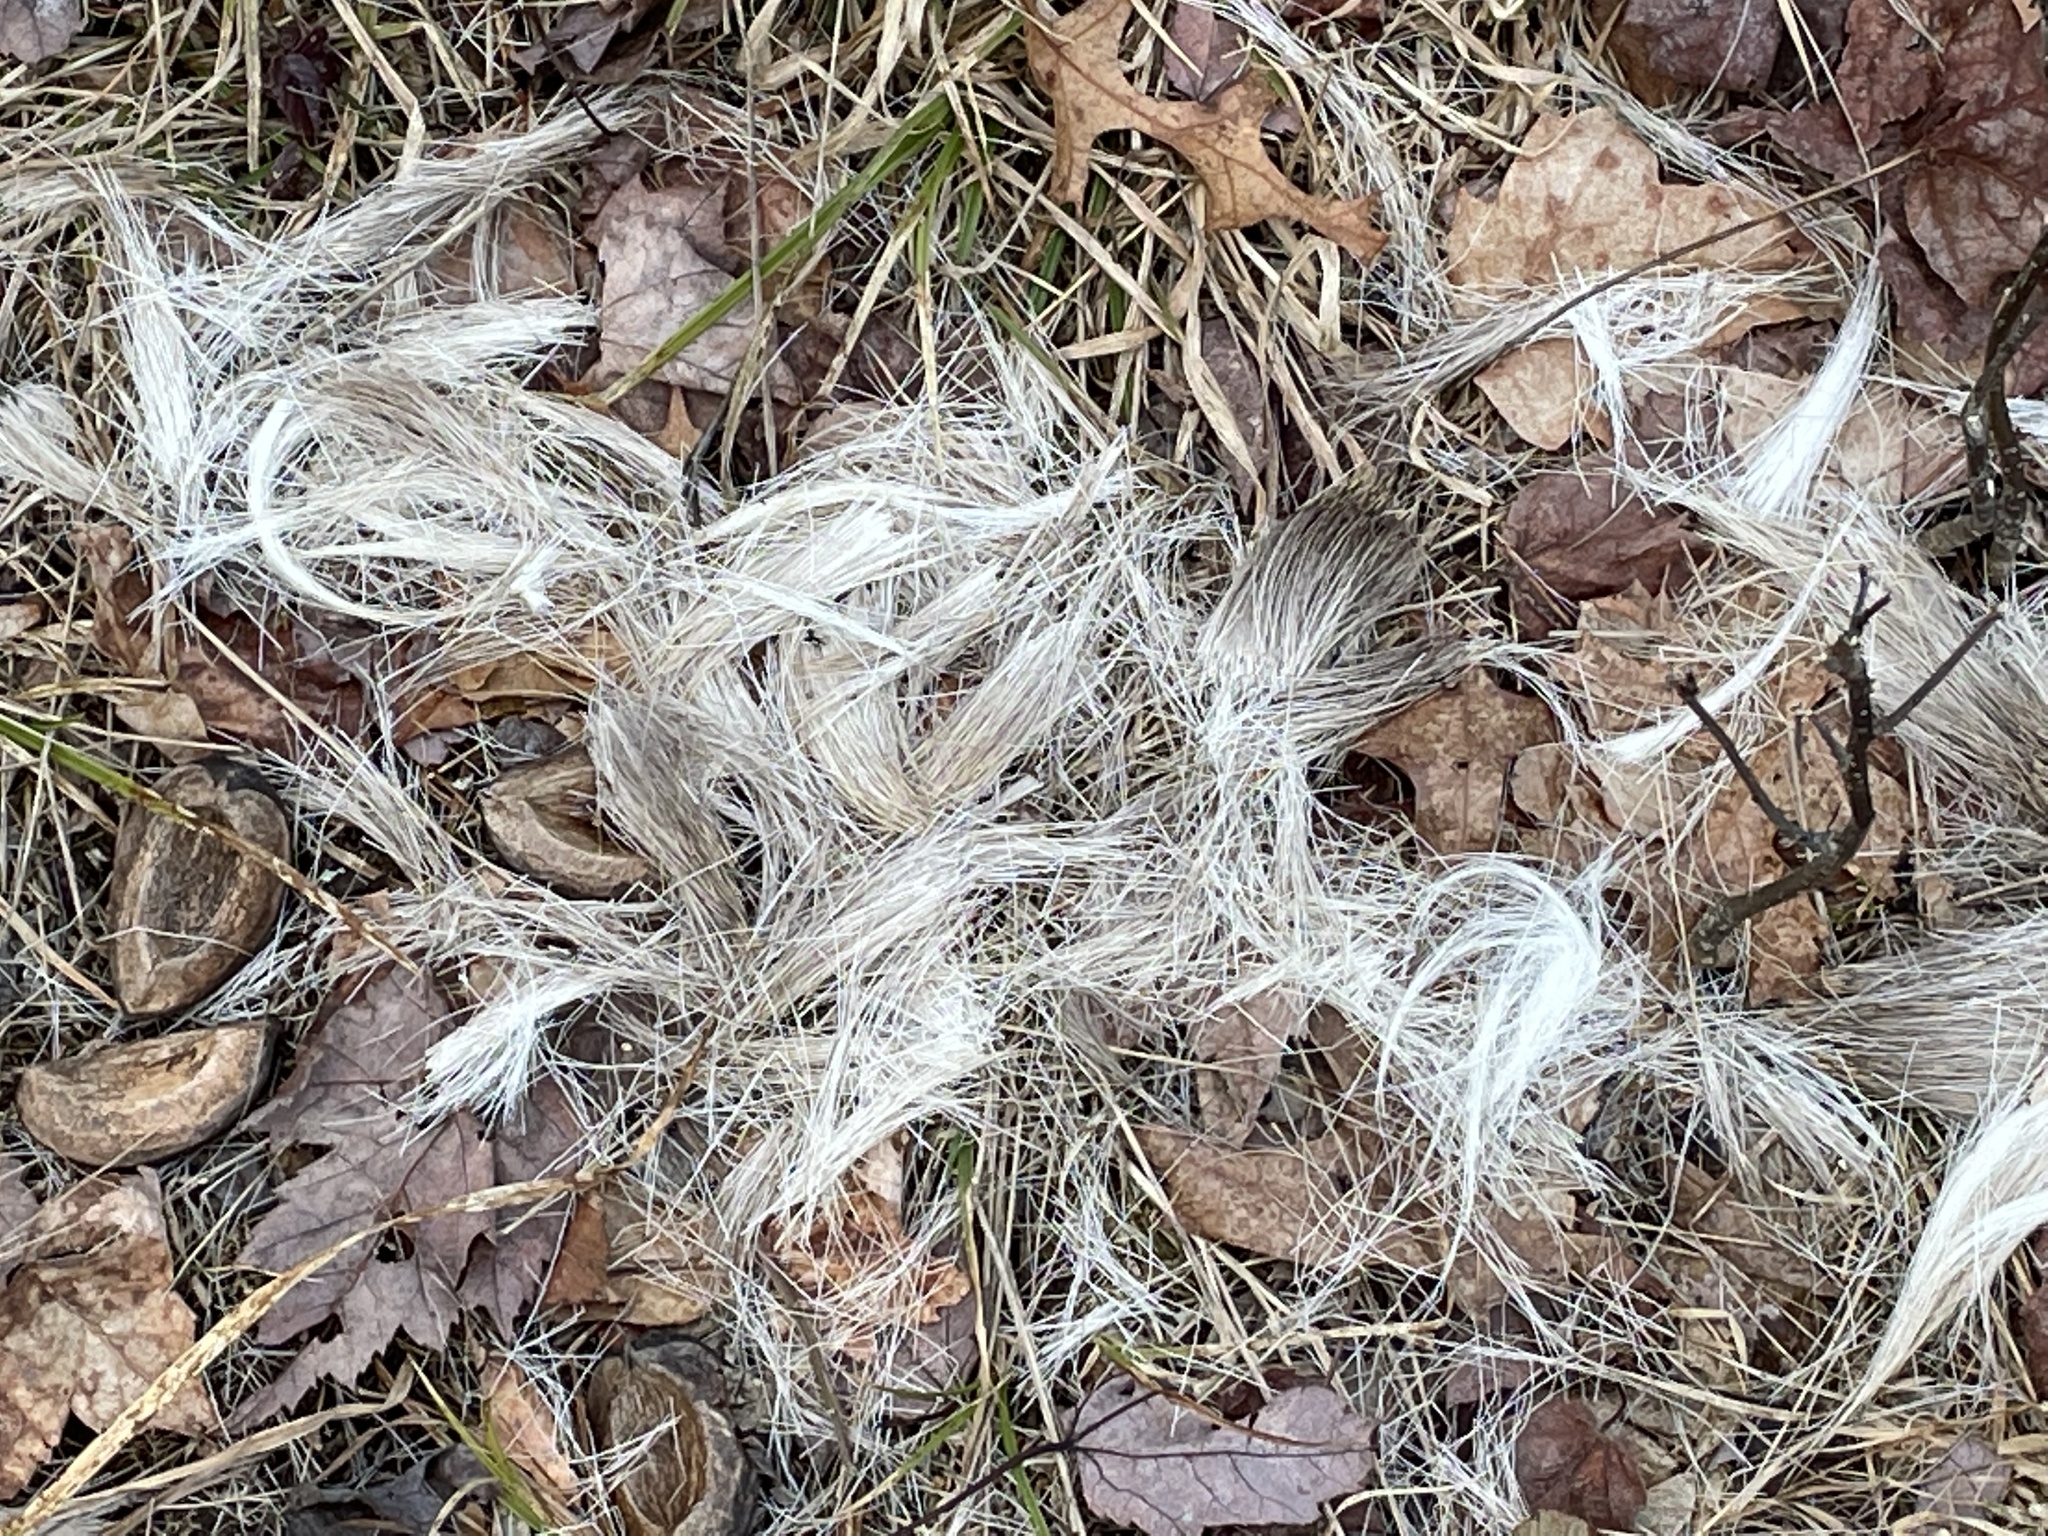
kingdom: Animalia
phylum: Chordata
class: Mammalia
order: Artiodactyla
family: Cervidae
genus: Odocoileus
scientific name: Odocoileus virginianus
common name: White-tailed deer
